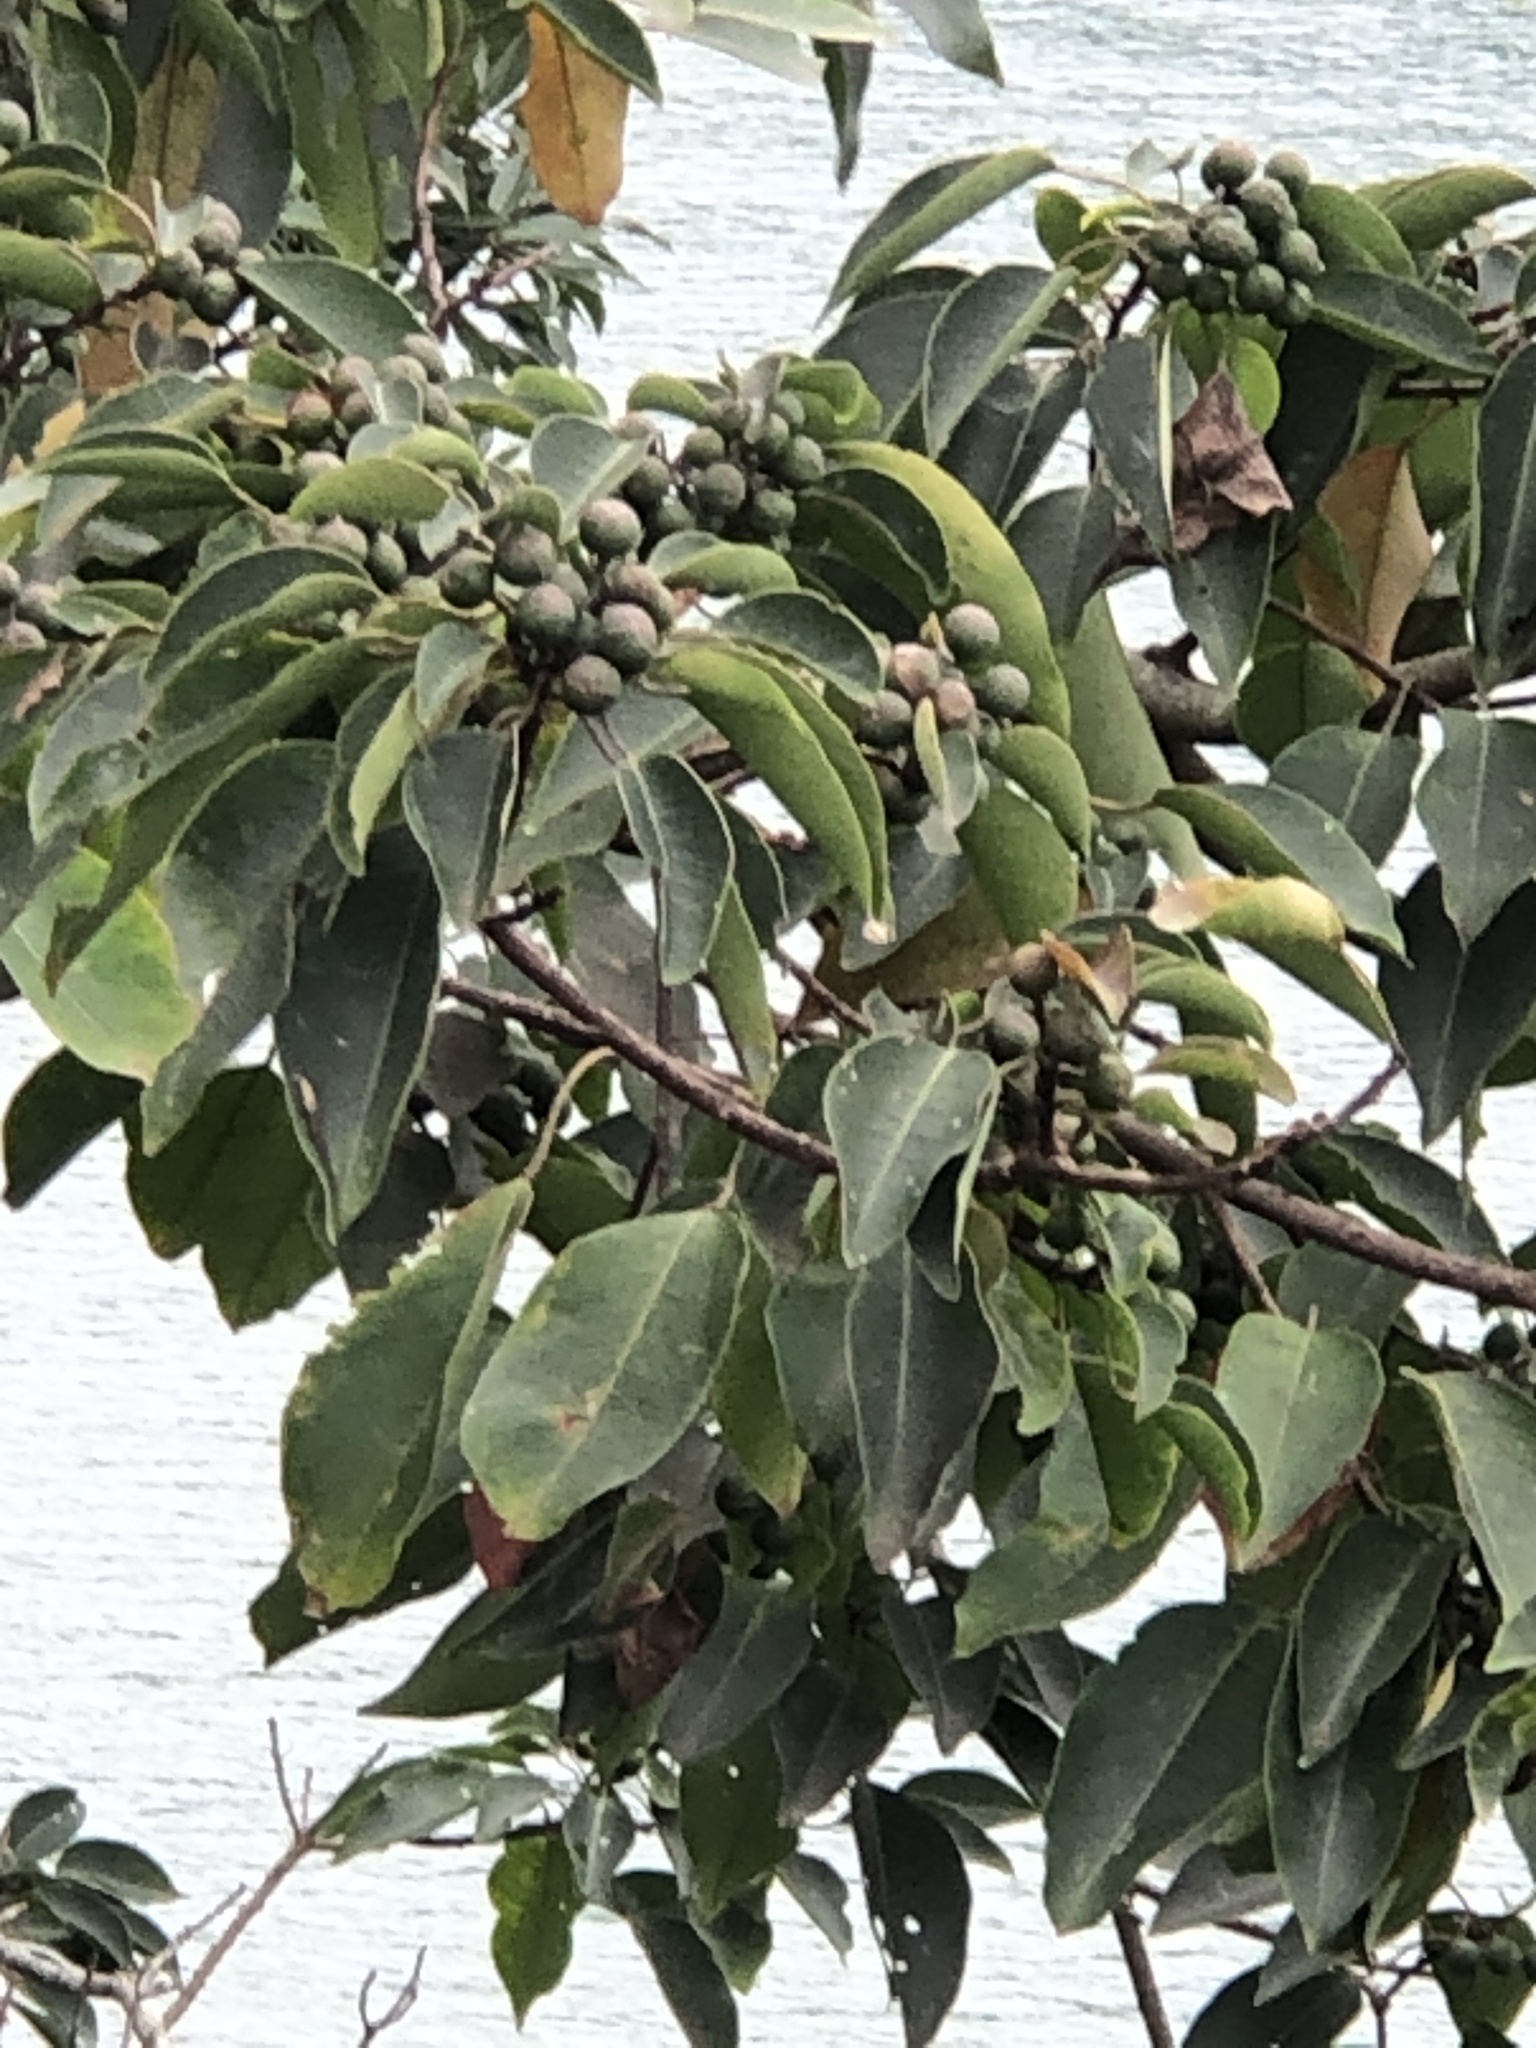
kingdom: Plantae
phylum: Tracheophyta
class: Magnoliopsida
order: Malpighiales
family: Euphorbiaceae
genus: Triadica
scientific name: Triadica cochinchinensis
